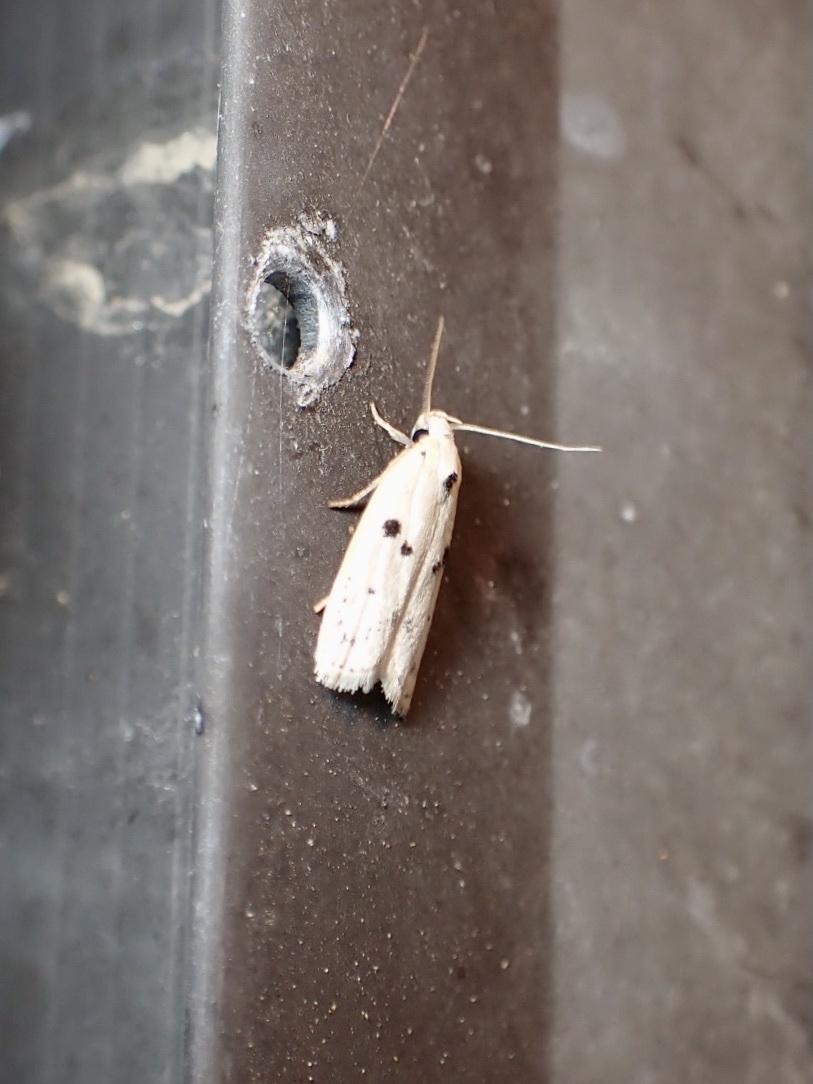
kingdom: Animalia
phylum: Arthropoda
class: Insecta
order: Lepidoptera
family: Peleopodidae
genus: Scythropiodes
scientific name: Scythropiodes issikii
